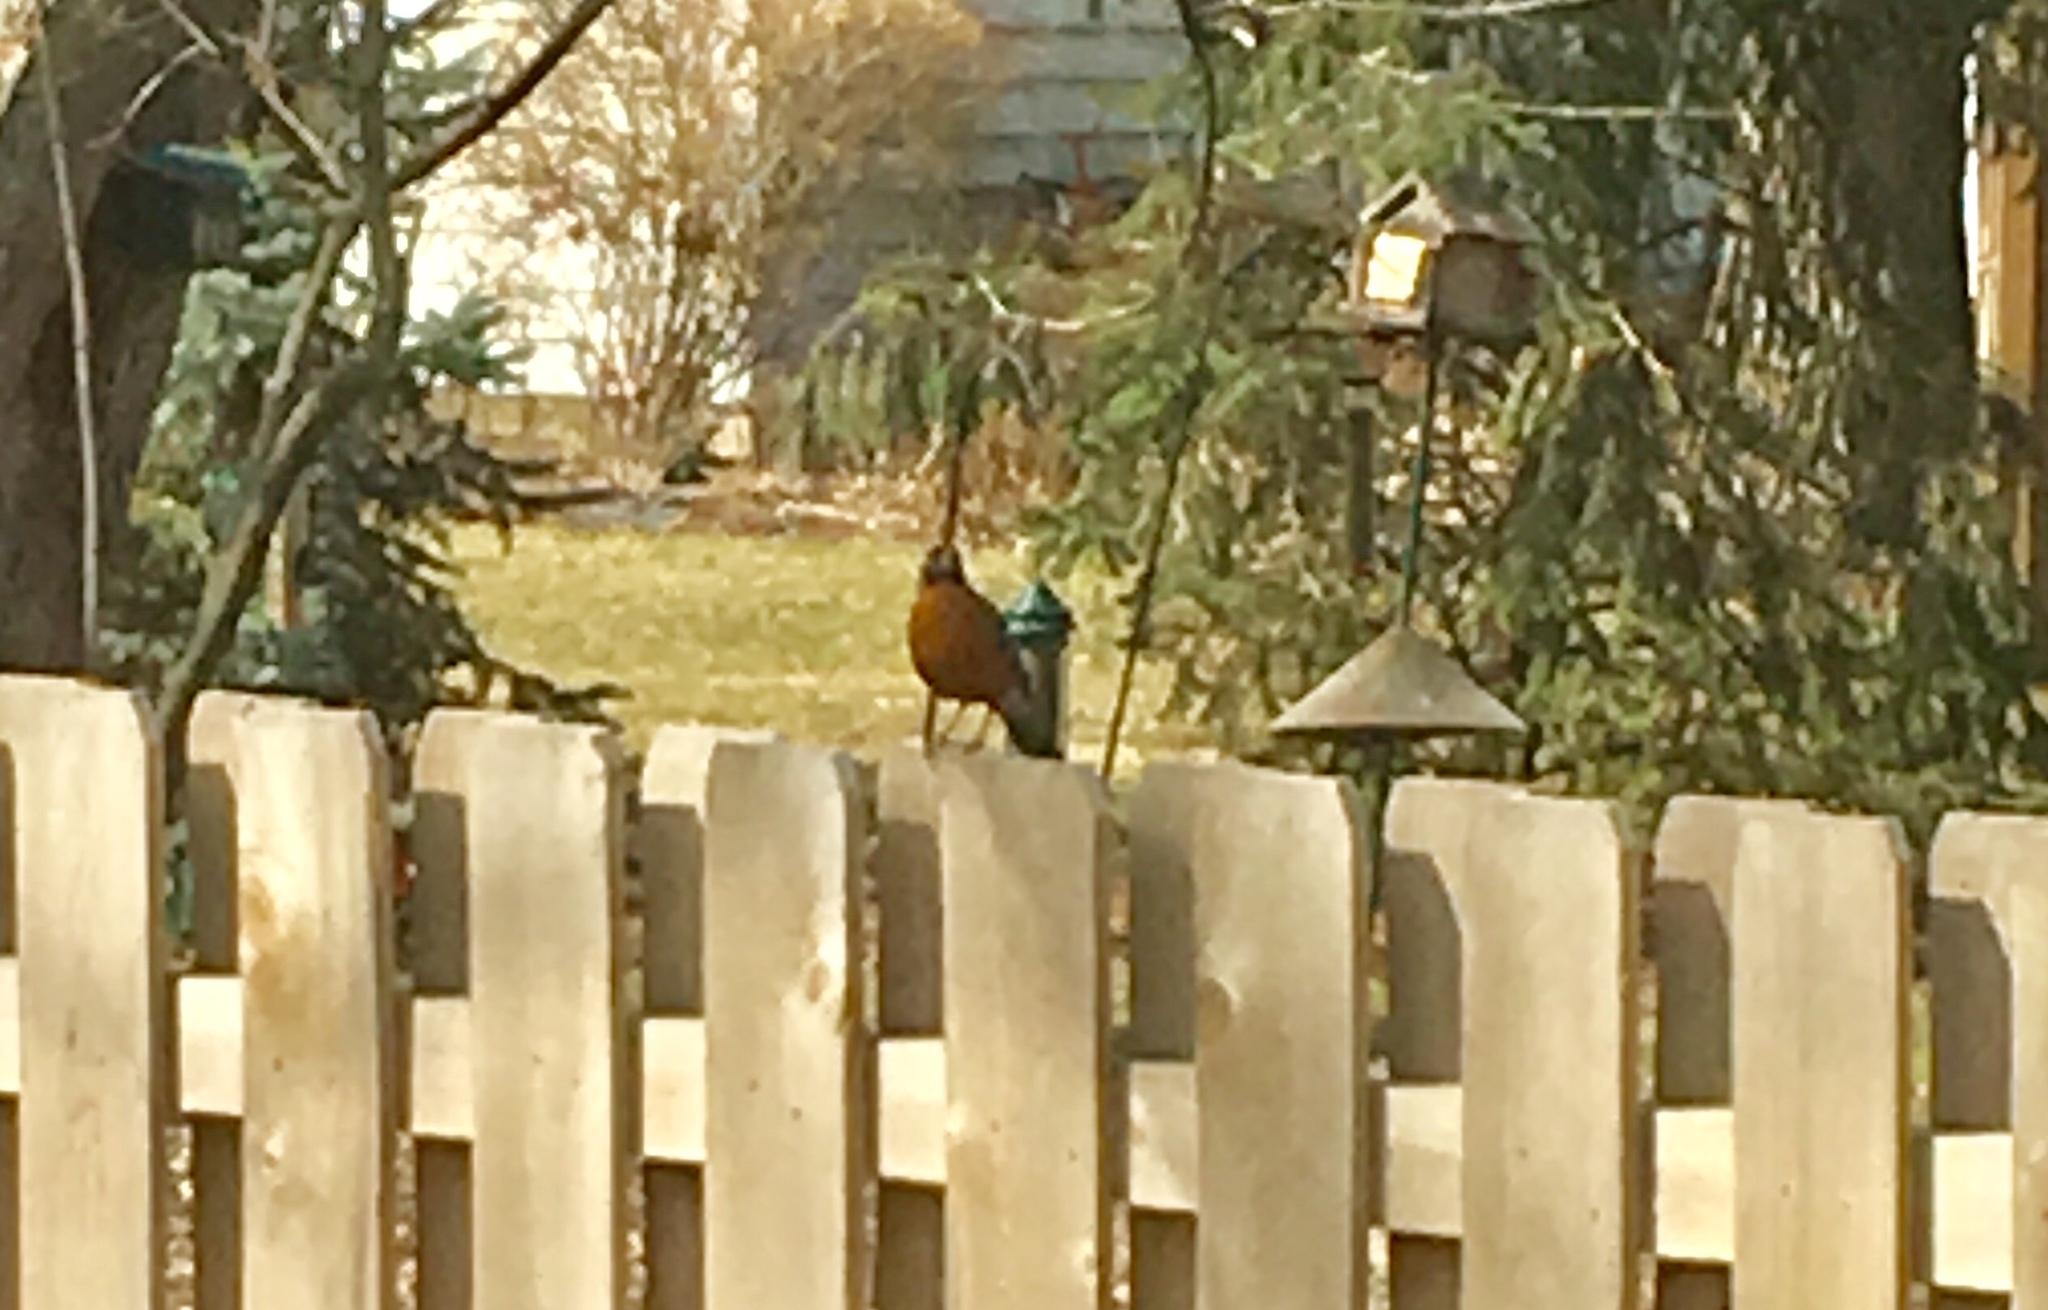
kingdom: Animalia
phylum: Chordata
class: Aves
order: Passeriformes
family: Turdidae
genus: Turdus
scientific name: Turdus migratorius
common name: American robin
